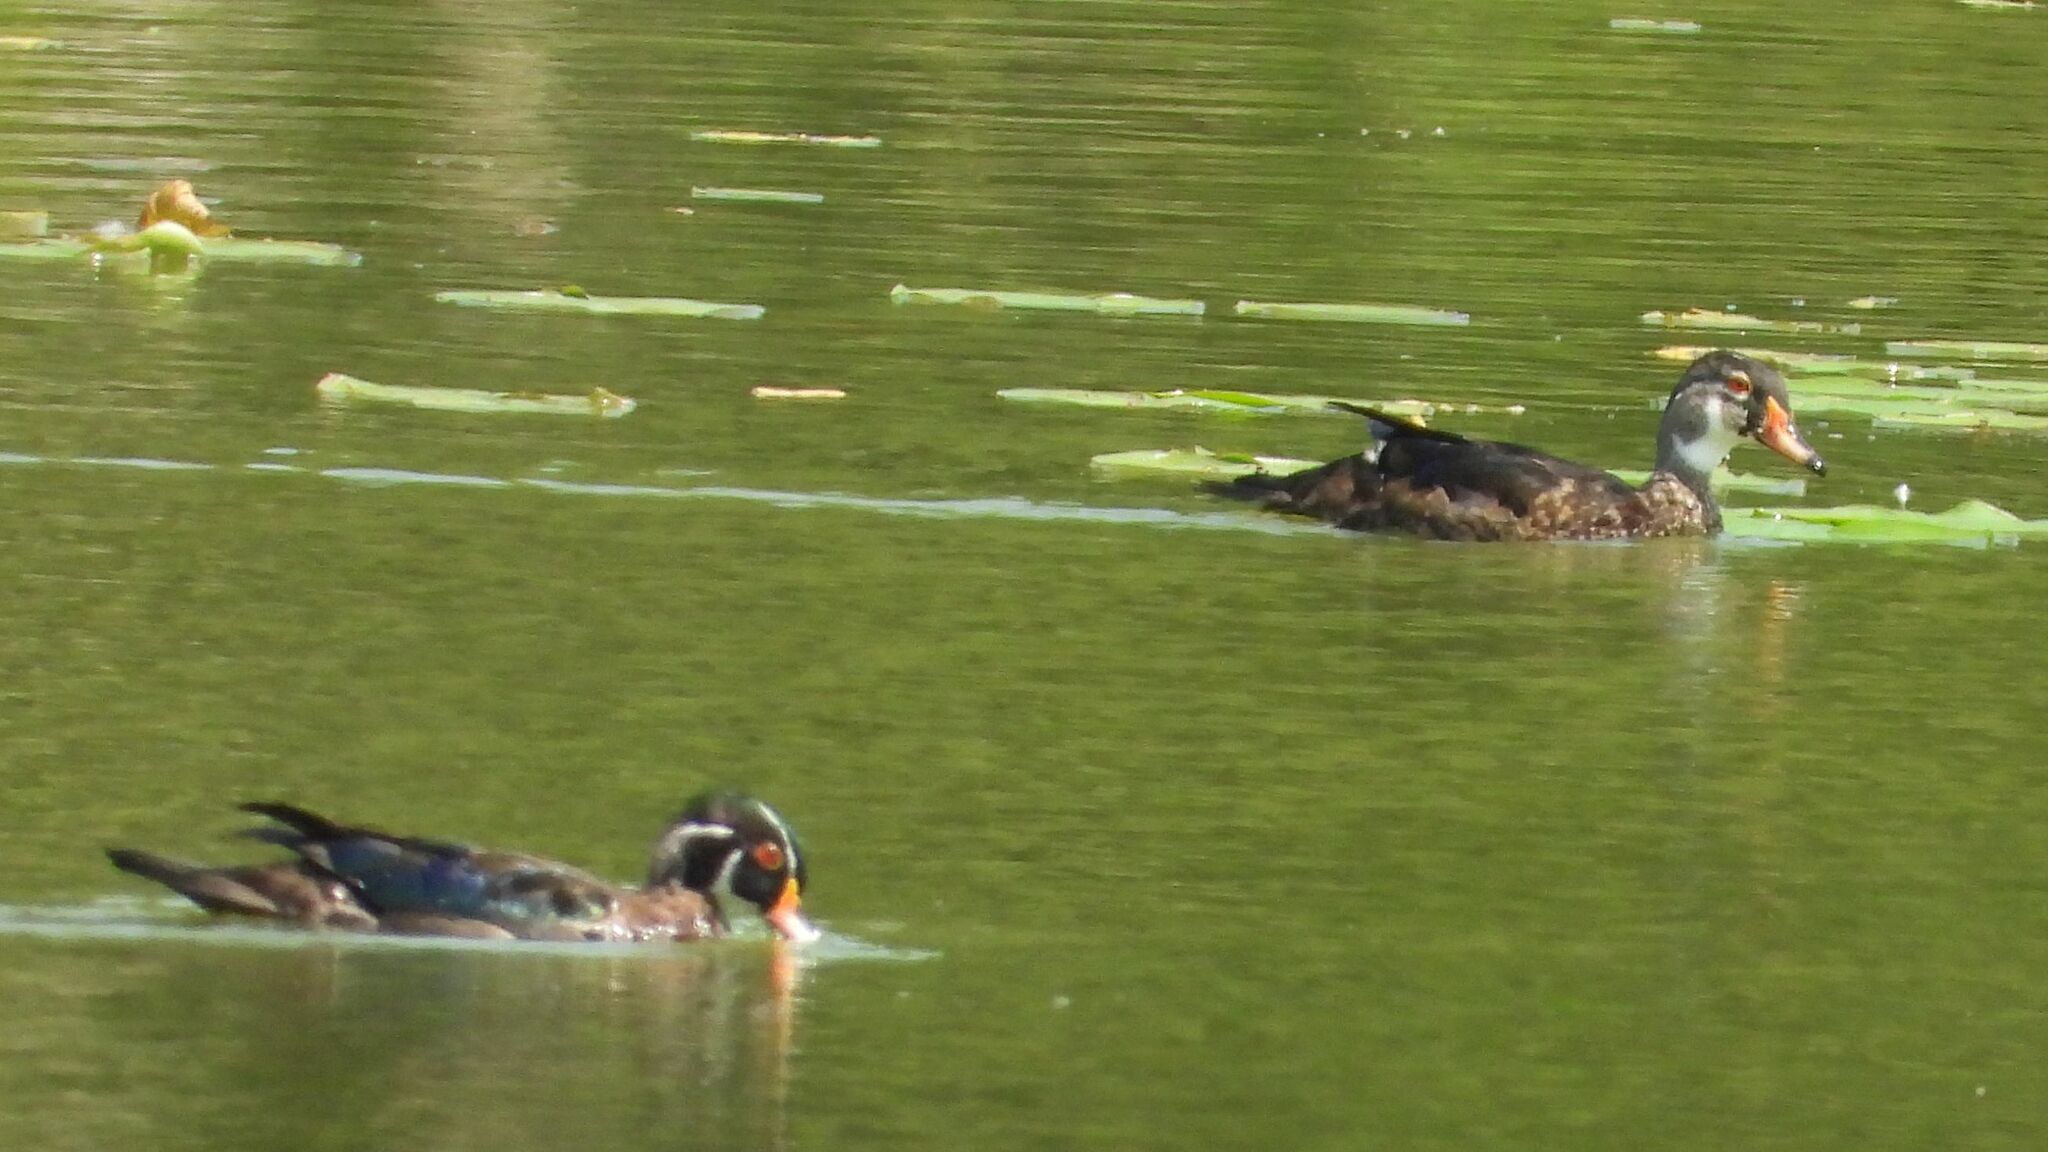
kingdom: Animalia
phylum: Chordata
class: Aves
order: Anseriformes
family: Anatidae
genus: Aix
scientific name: Aix sponsa
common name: Wood duck
